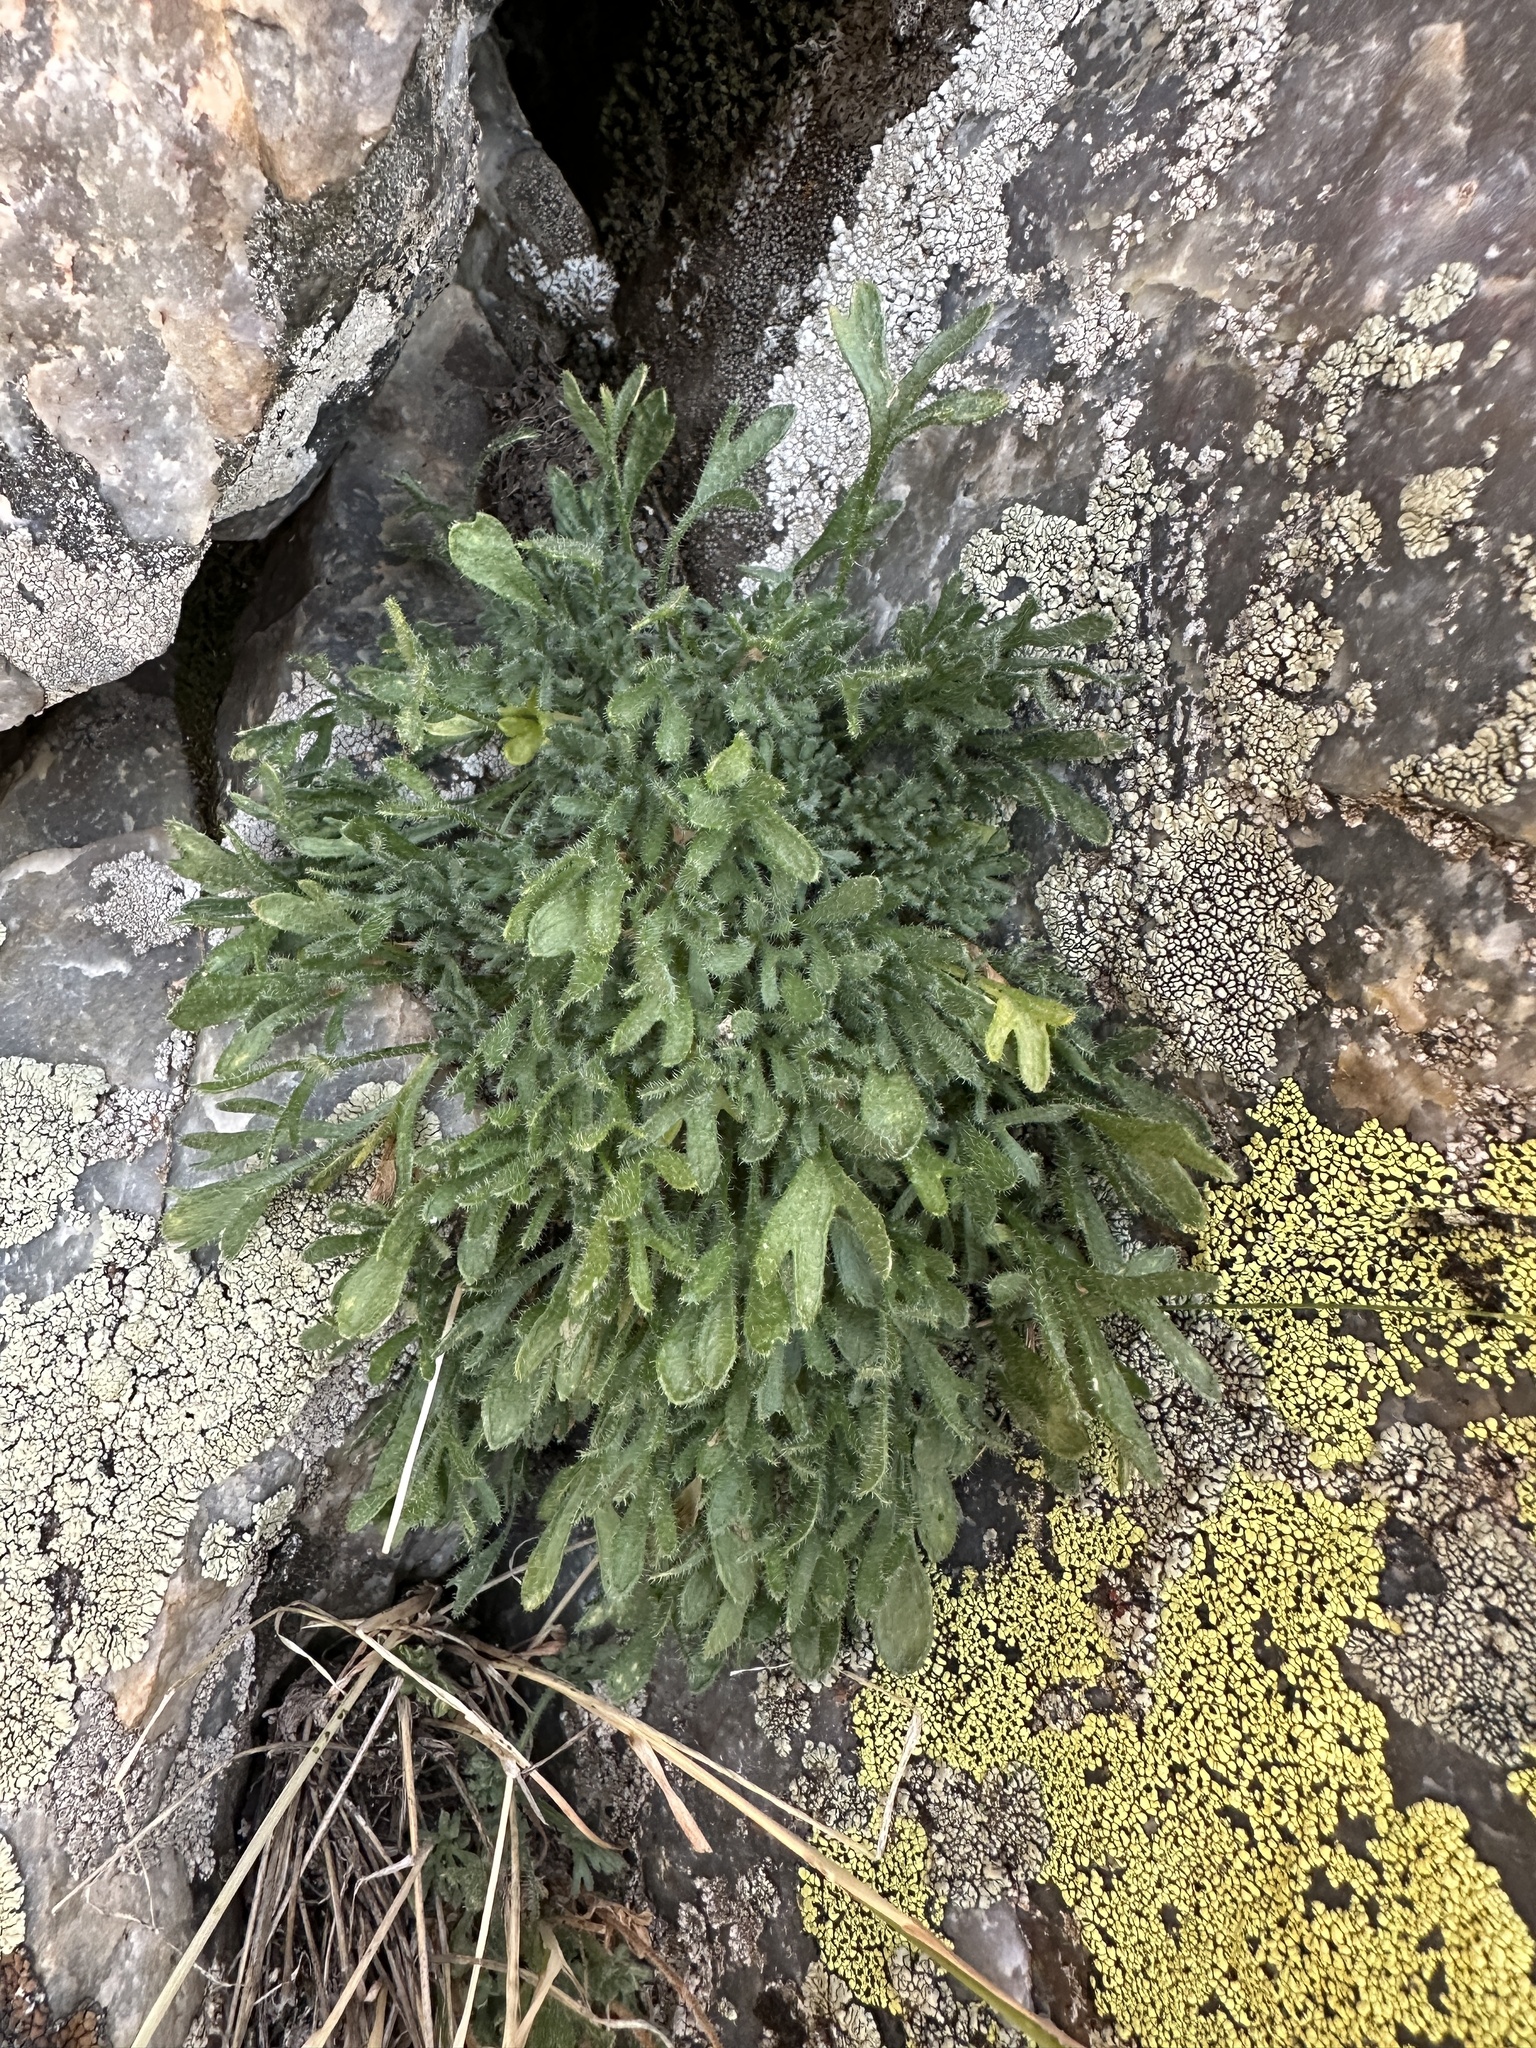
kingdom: Plantae
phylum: Tracheophyta
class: Magnoliopsida
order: Asterales
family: Asteraceae
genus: Erigeron
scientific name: Erigeron pinnatisectus
